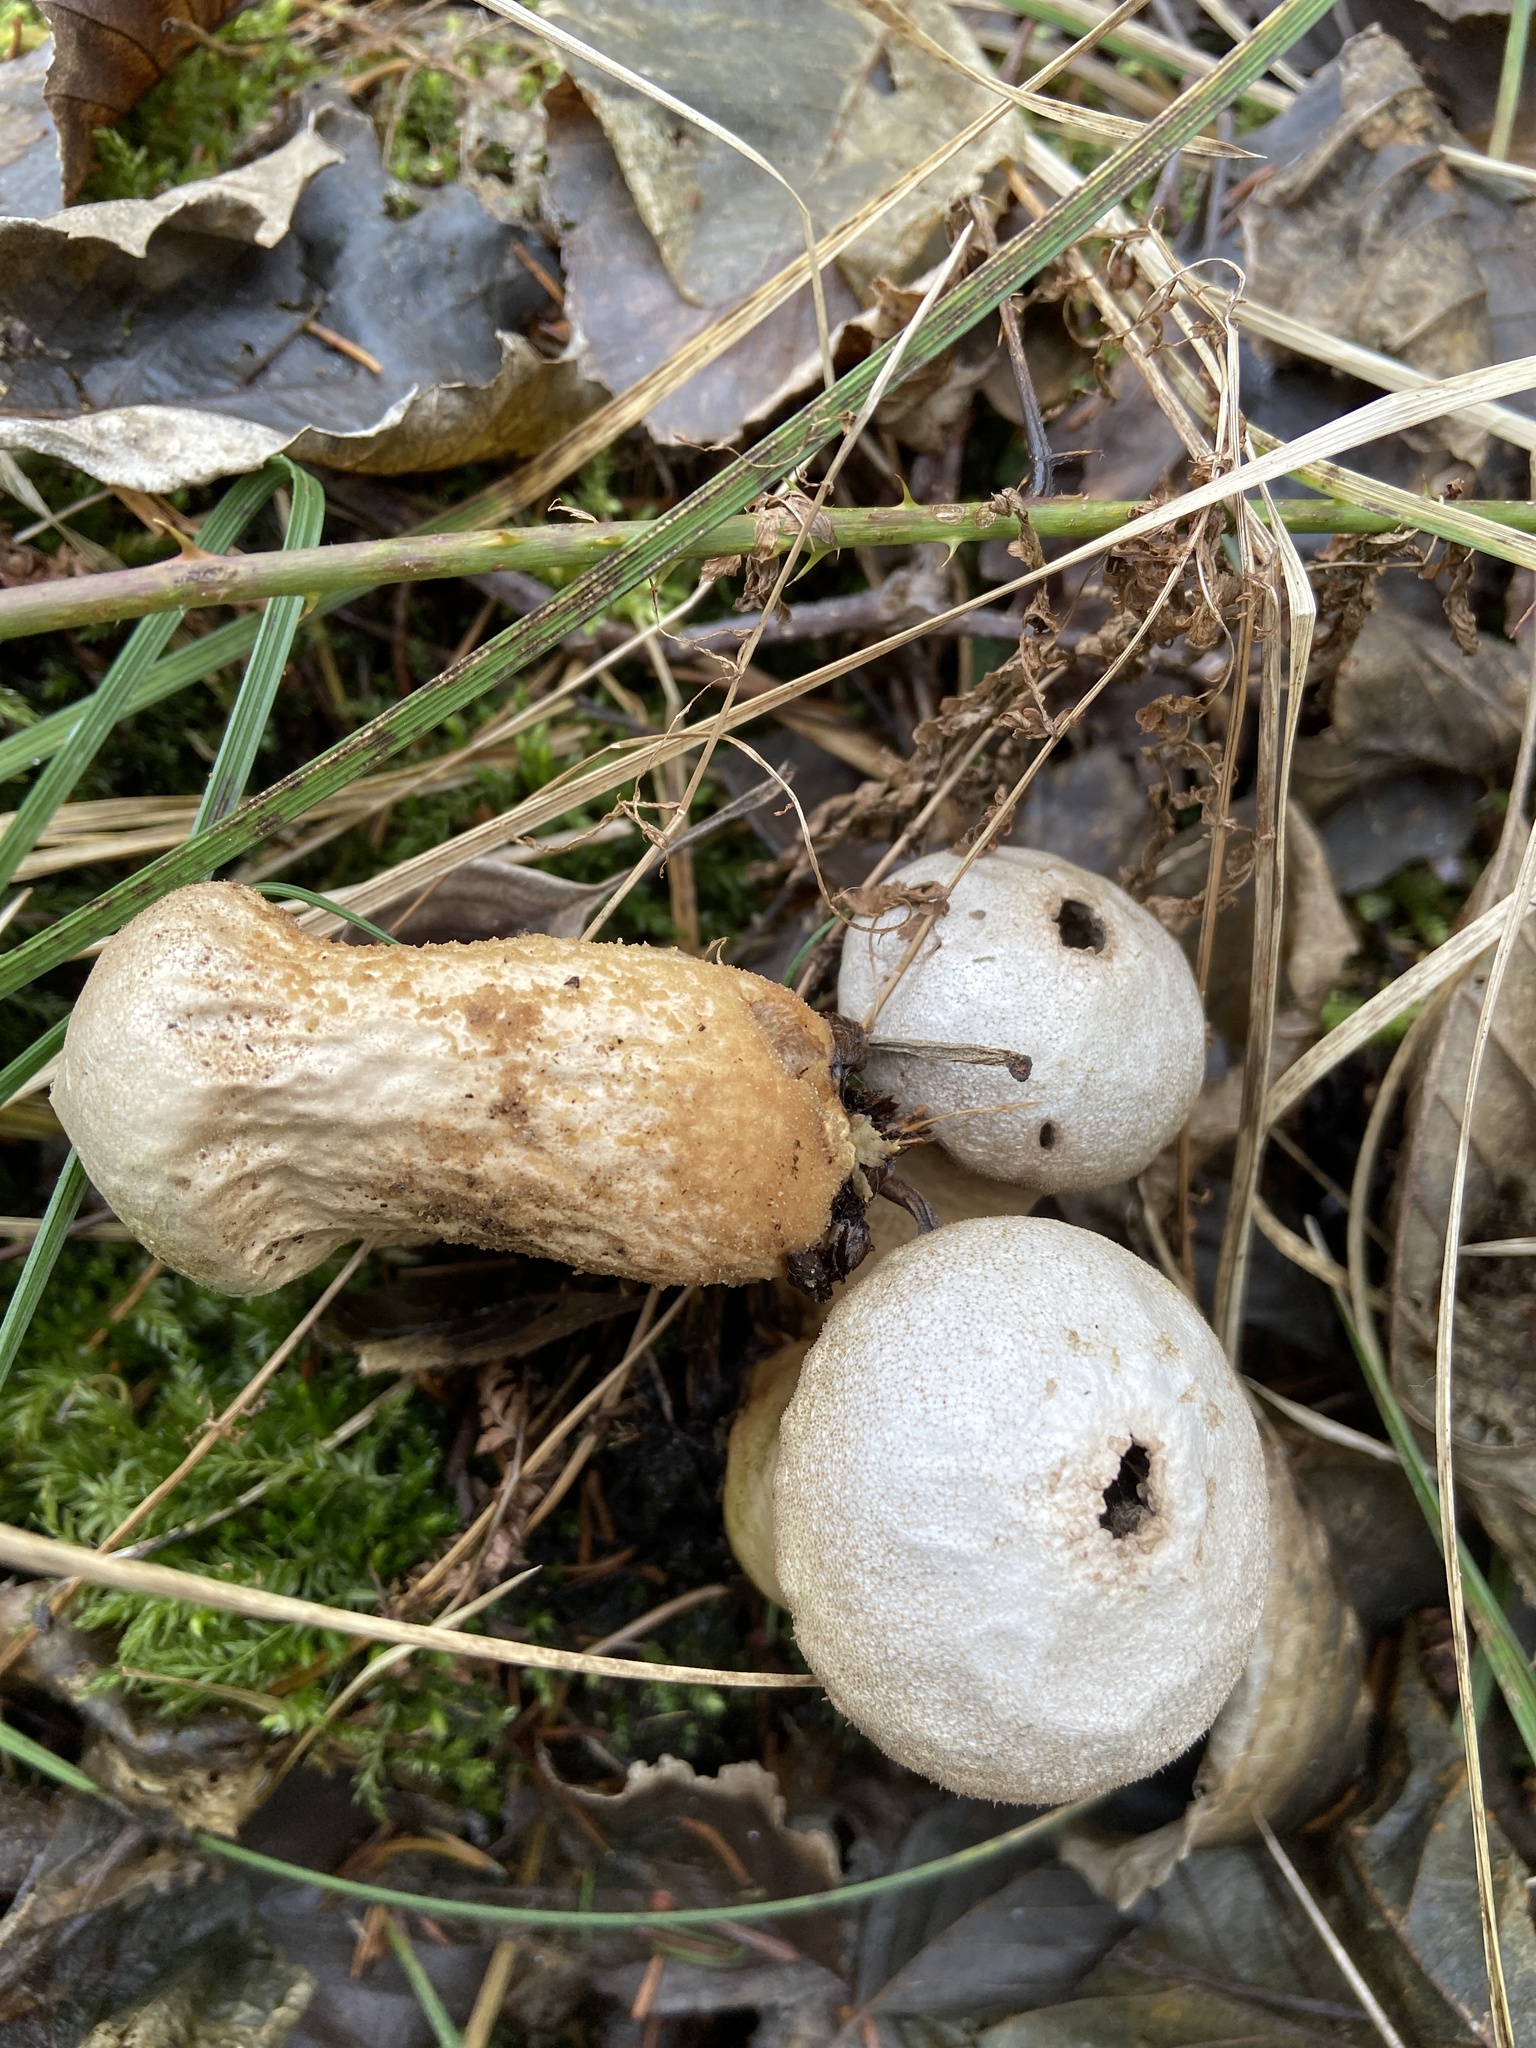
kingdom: Fungi
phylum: Basidiomycota
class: Agaricomycetes
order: Agaricales
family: Lycoperdaceae
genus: Lycoperdon
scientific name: Lycoperdon perlatum
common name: Common puffball
